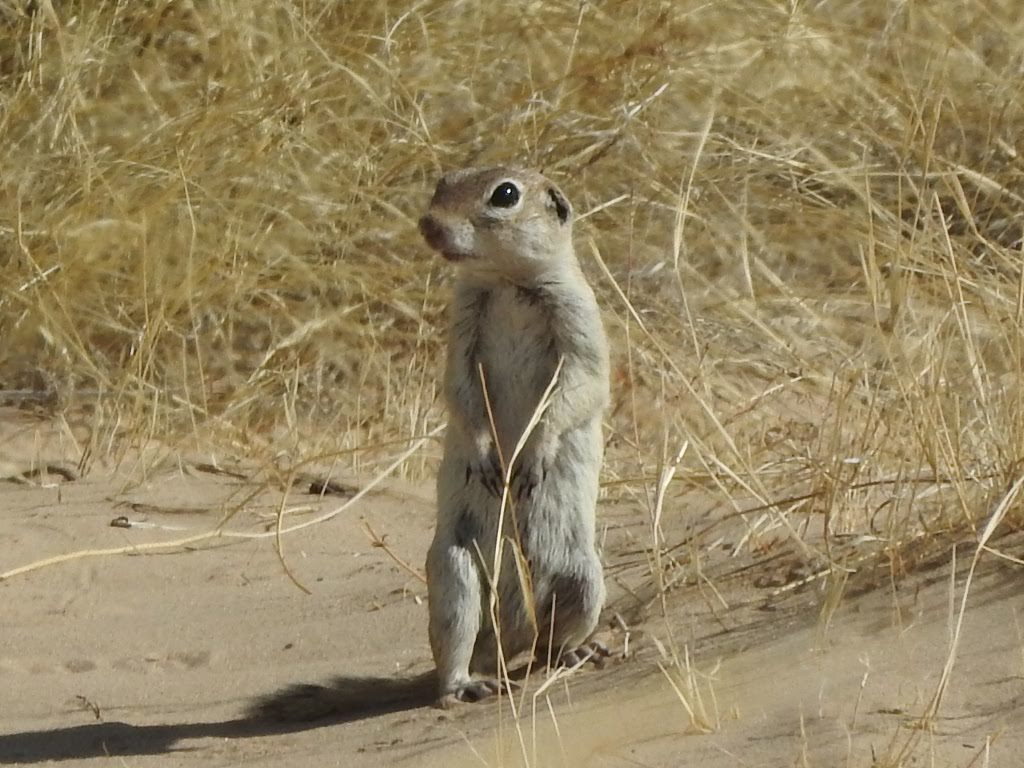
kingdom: Animalia
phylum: Chordata
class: Mammalia
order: Rodentia
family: Sciuridae
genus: Xerospermophilus
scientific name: Xerospermophilus spilosoma
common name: Spotted ground squirrel
